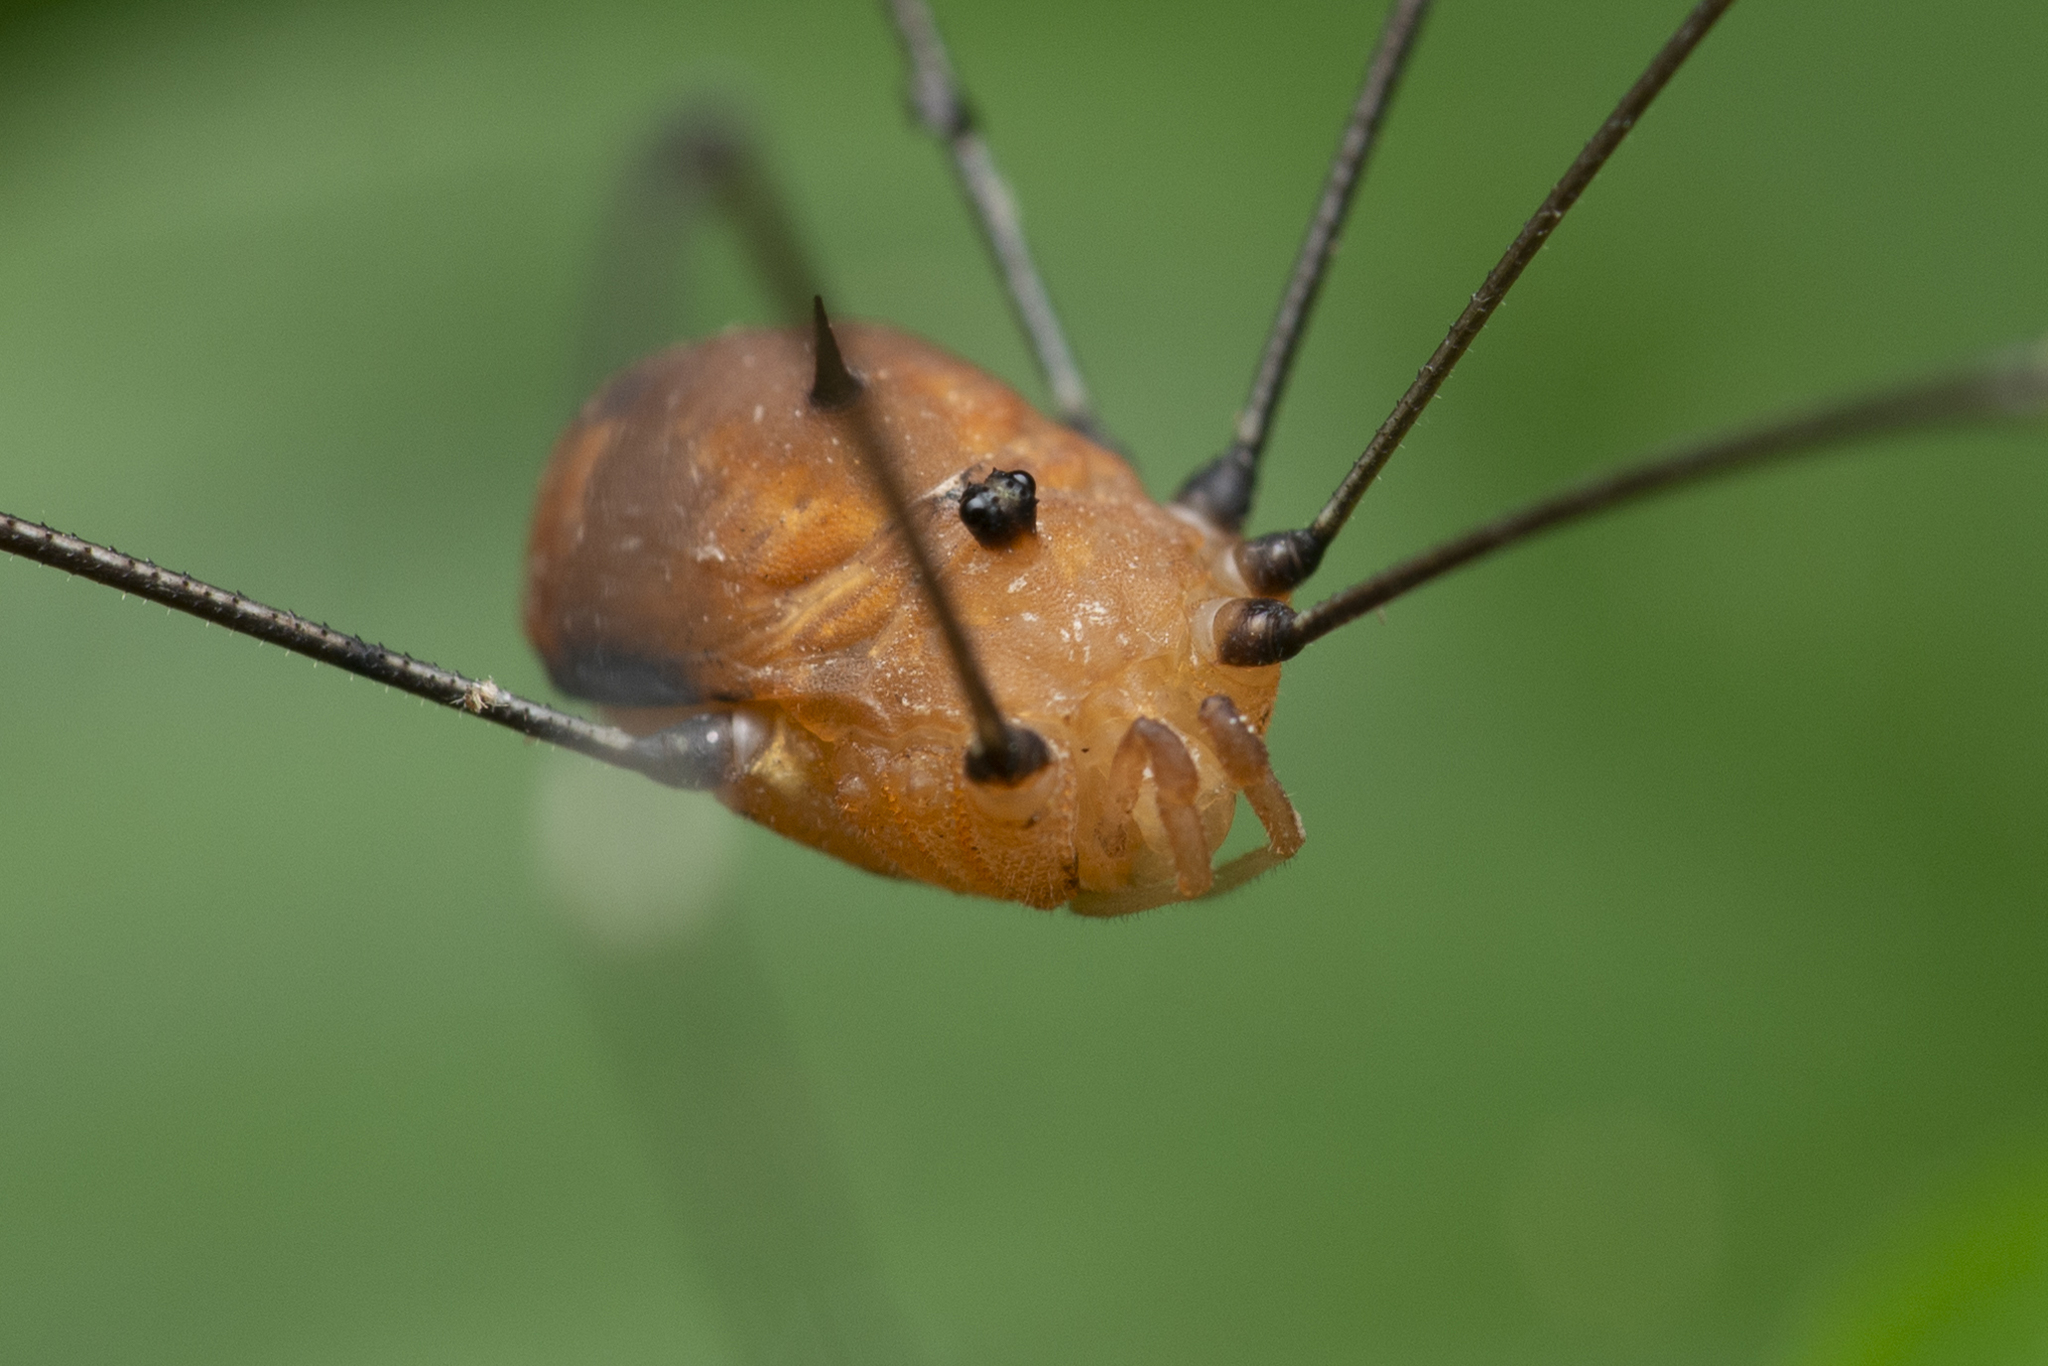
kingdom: Animalia
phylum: Arthropoda
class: Arachnida
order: Opiliones
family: Sclerosomatidae
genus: Pseudogagrella
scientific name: Pseudogagrella splendens
